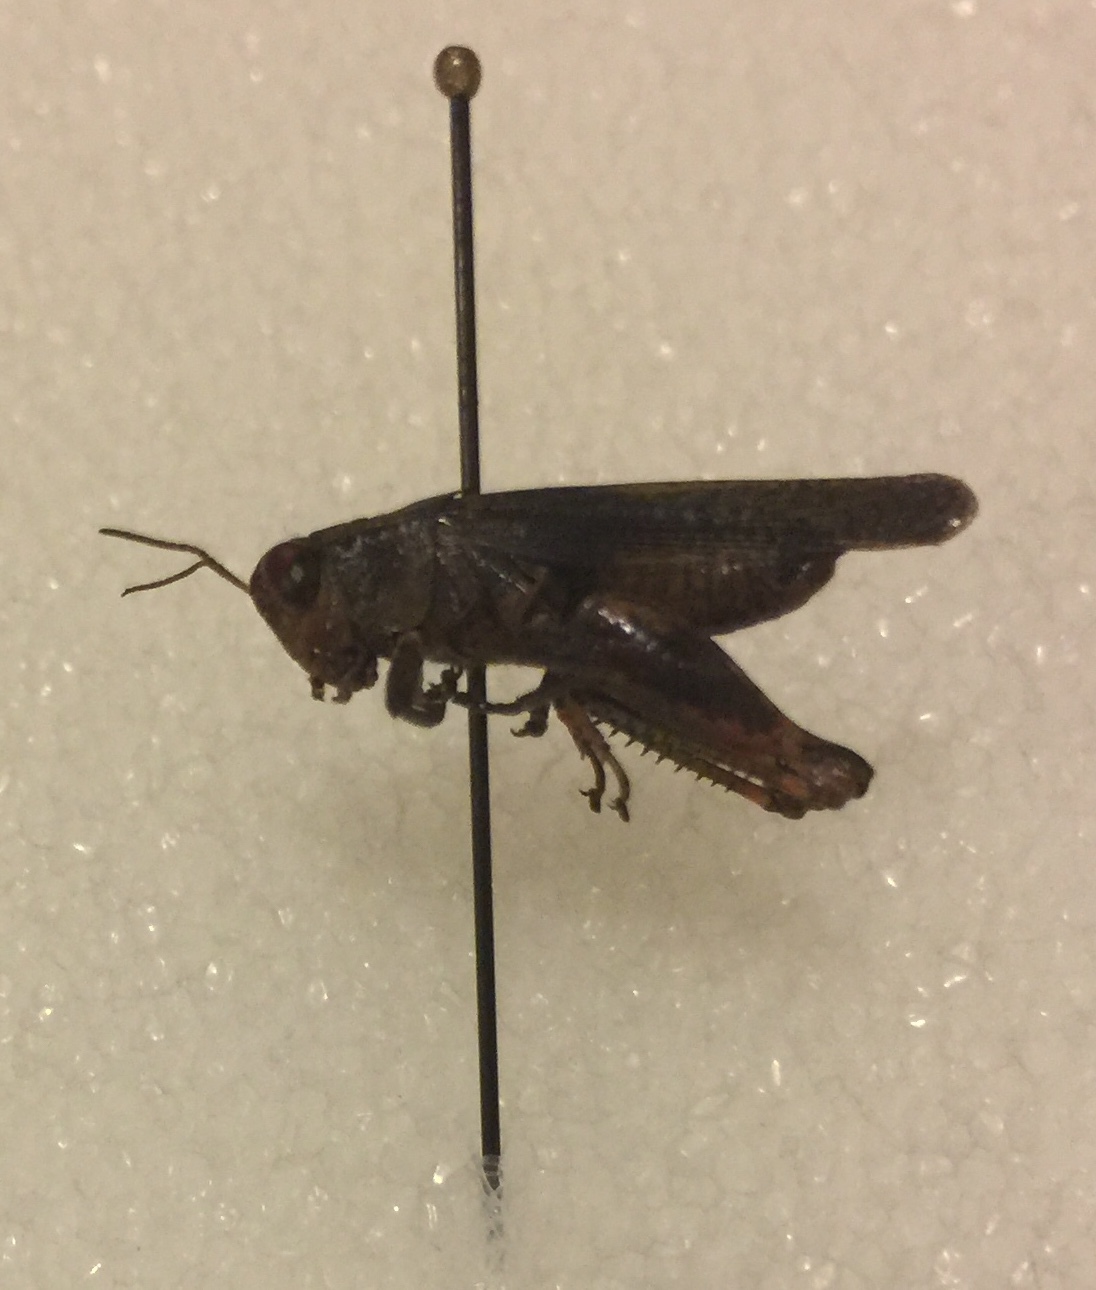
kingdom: Animalia
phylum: Arthropoda
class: Insecta
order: Orthoptera
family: Acrididae
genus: Aidemona
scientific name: Aidemona azteca
